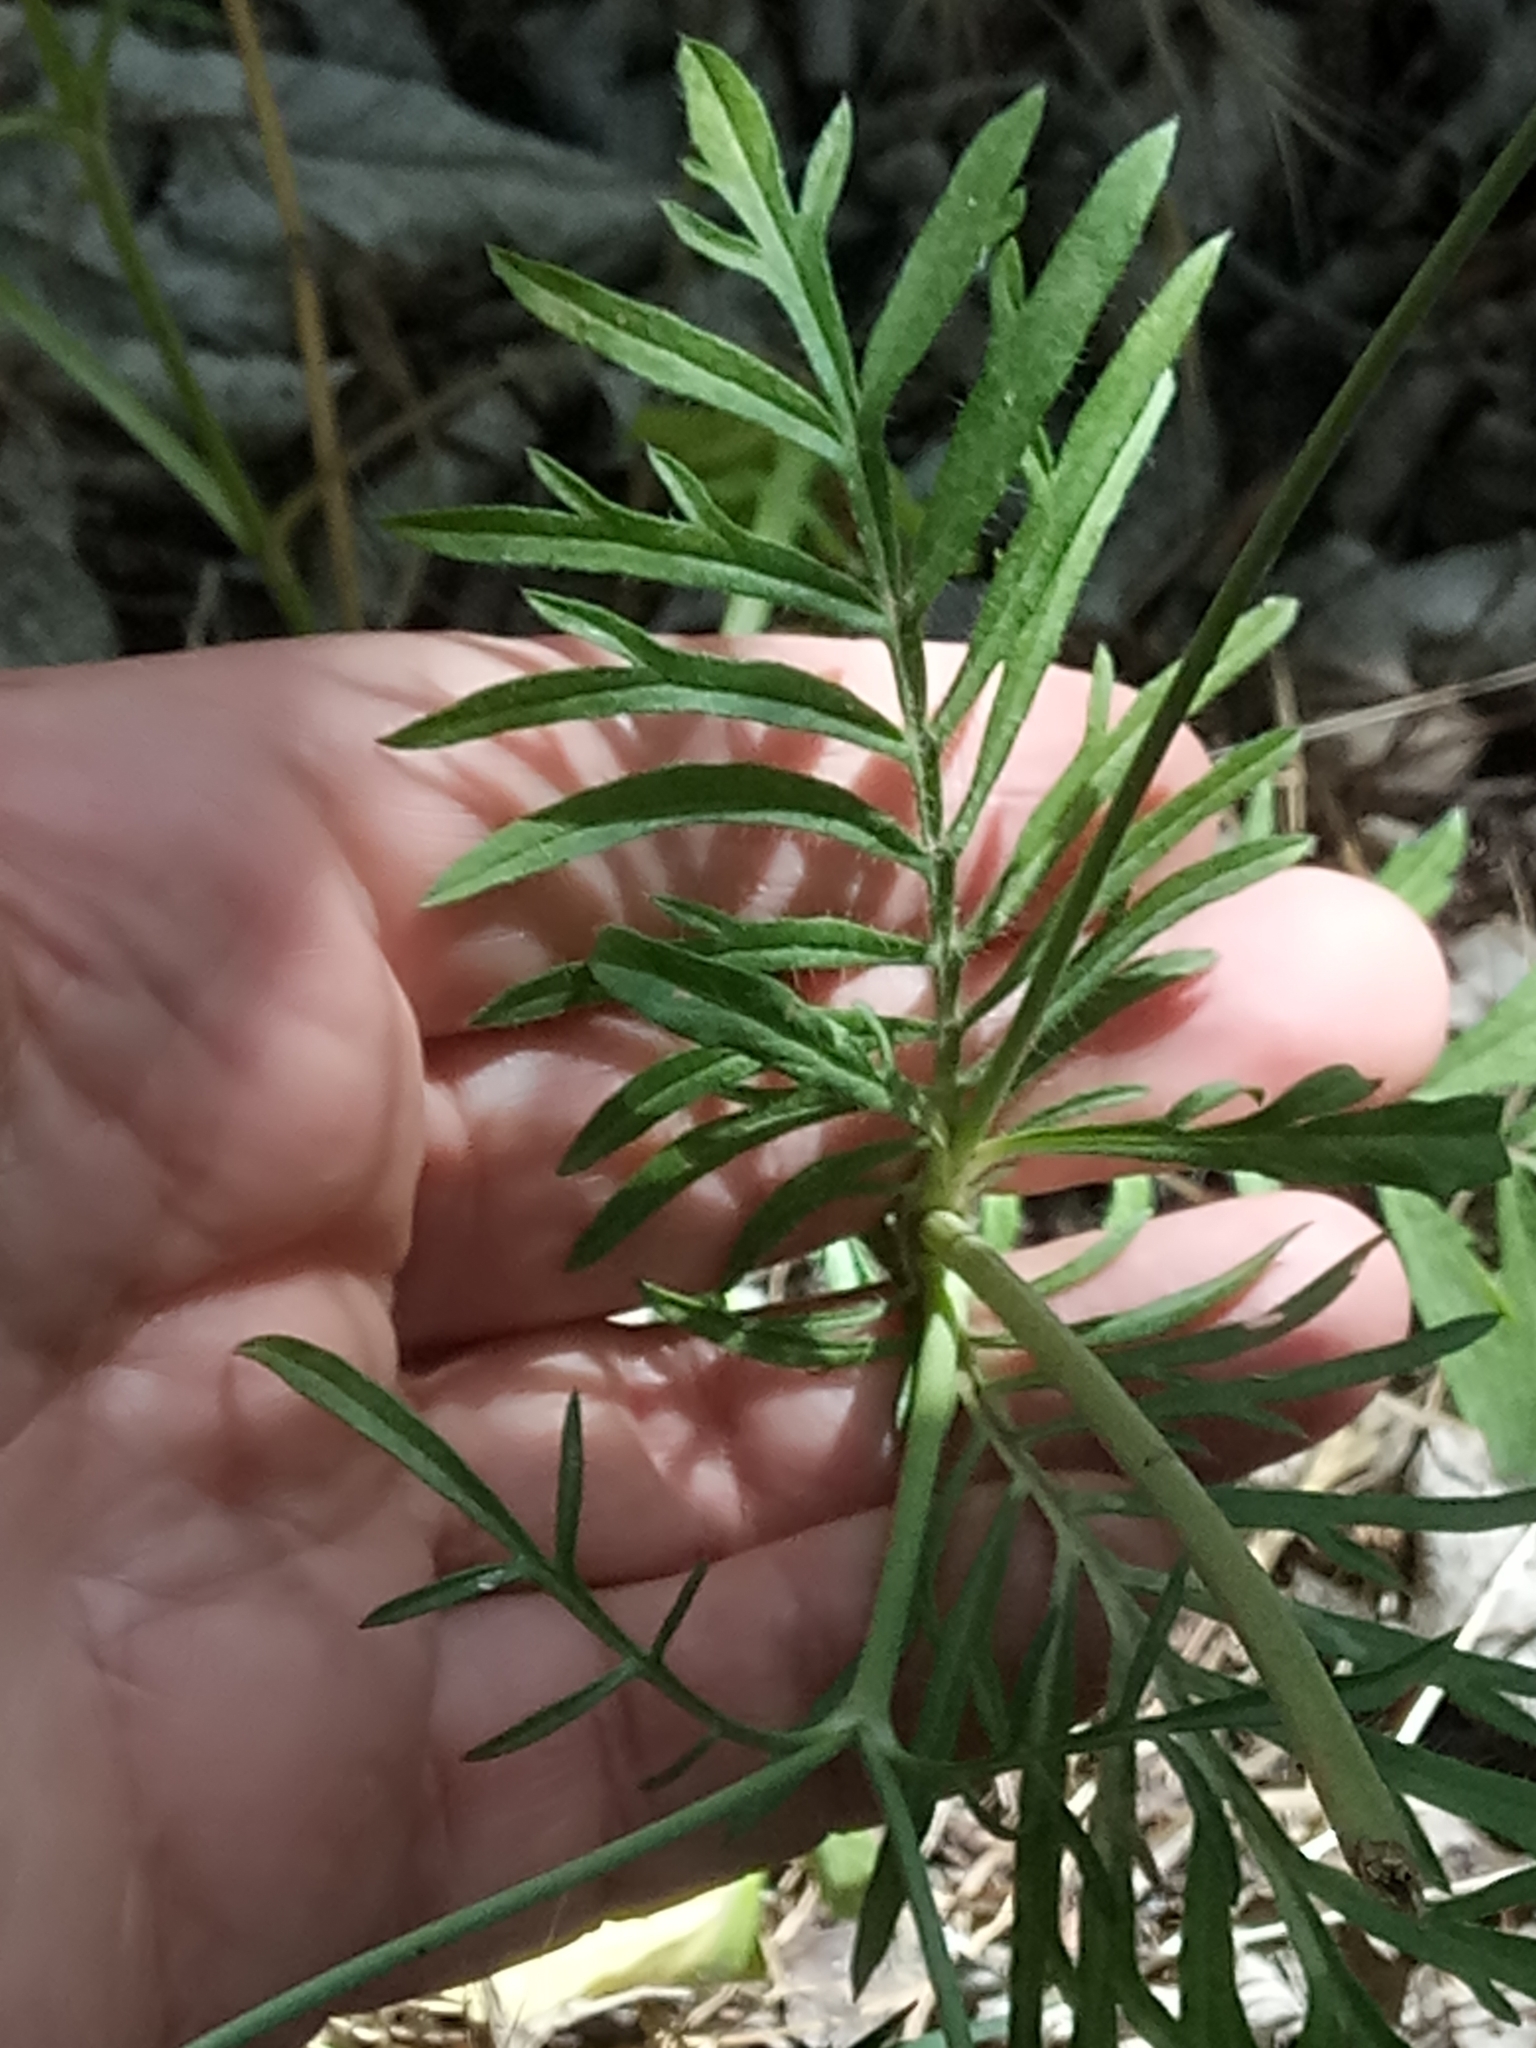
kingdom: Plantae
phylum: Tracheophyta
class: Magnoliopsida
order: Dipsacales
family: Caprifoliaceae
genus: Sixalix
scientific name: Sixalix maritima
